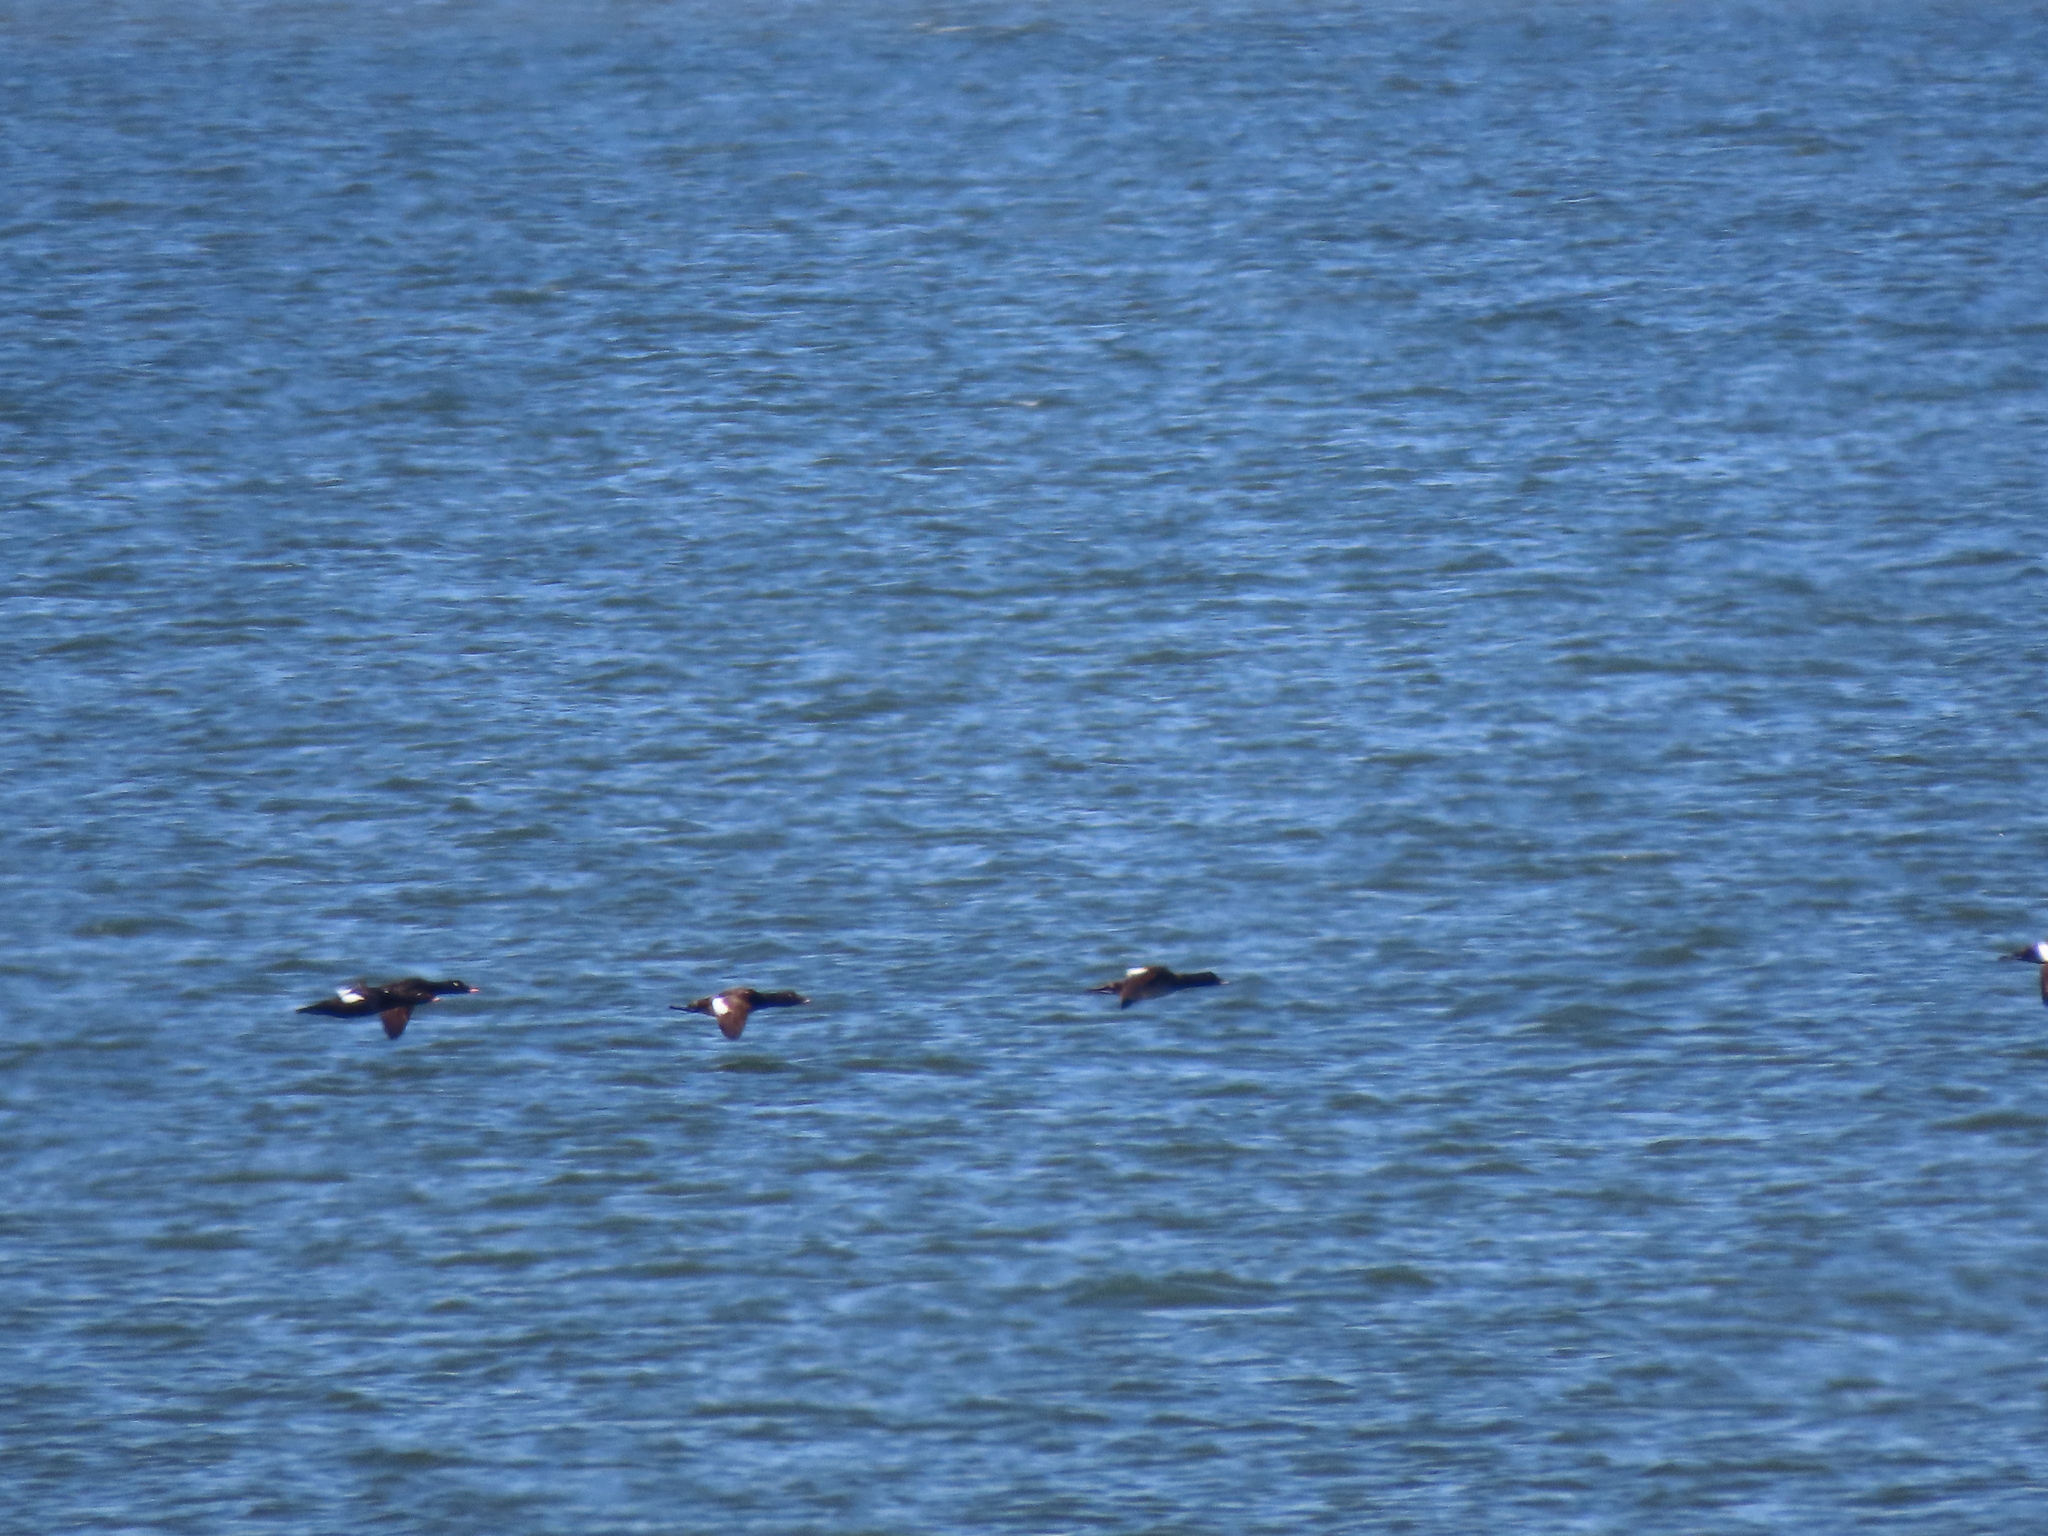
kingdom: Animalia
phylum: Chordata
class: Aves
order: Anseriformes
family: Anatidae
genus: Melanitta
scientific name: Melanitta deglandi
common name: White-winged scoter
